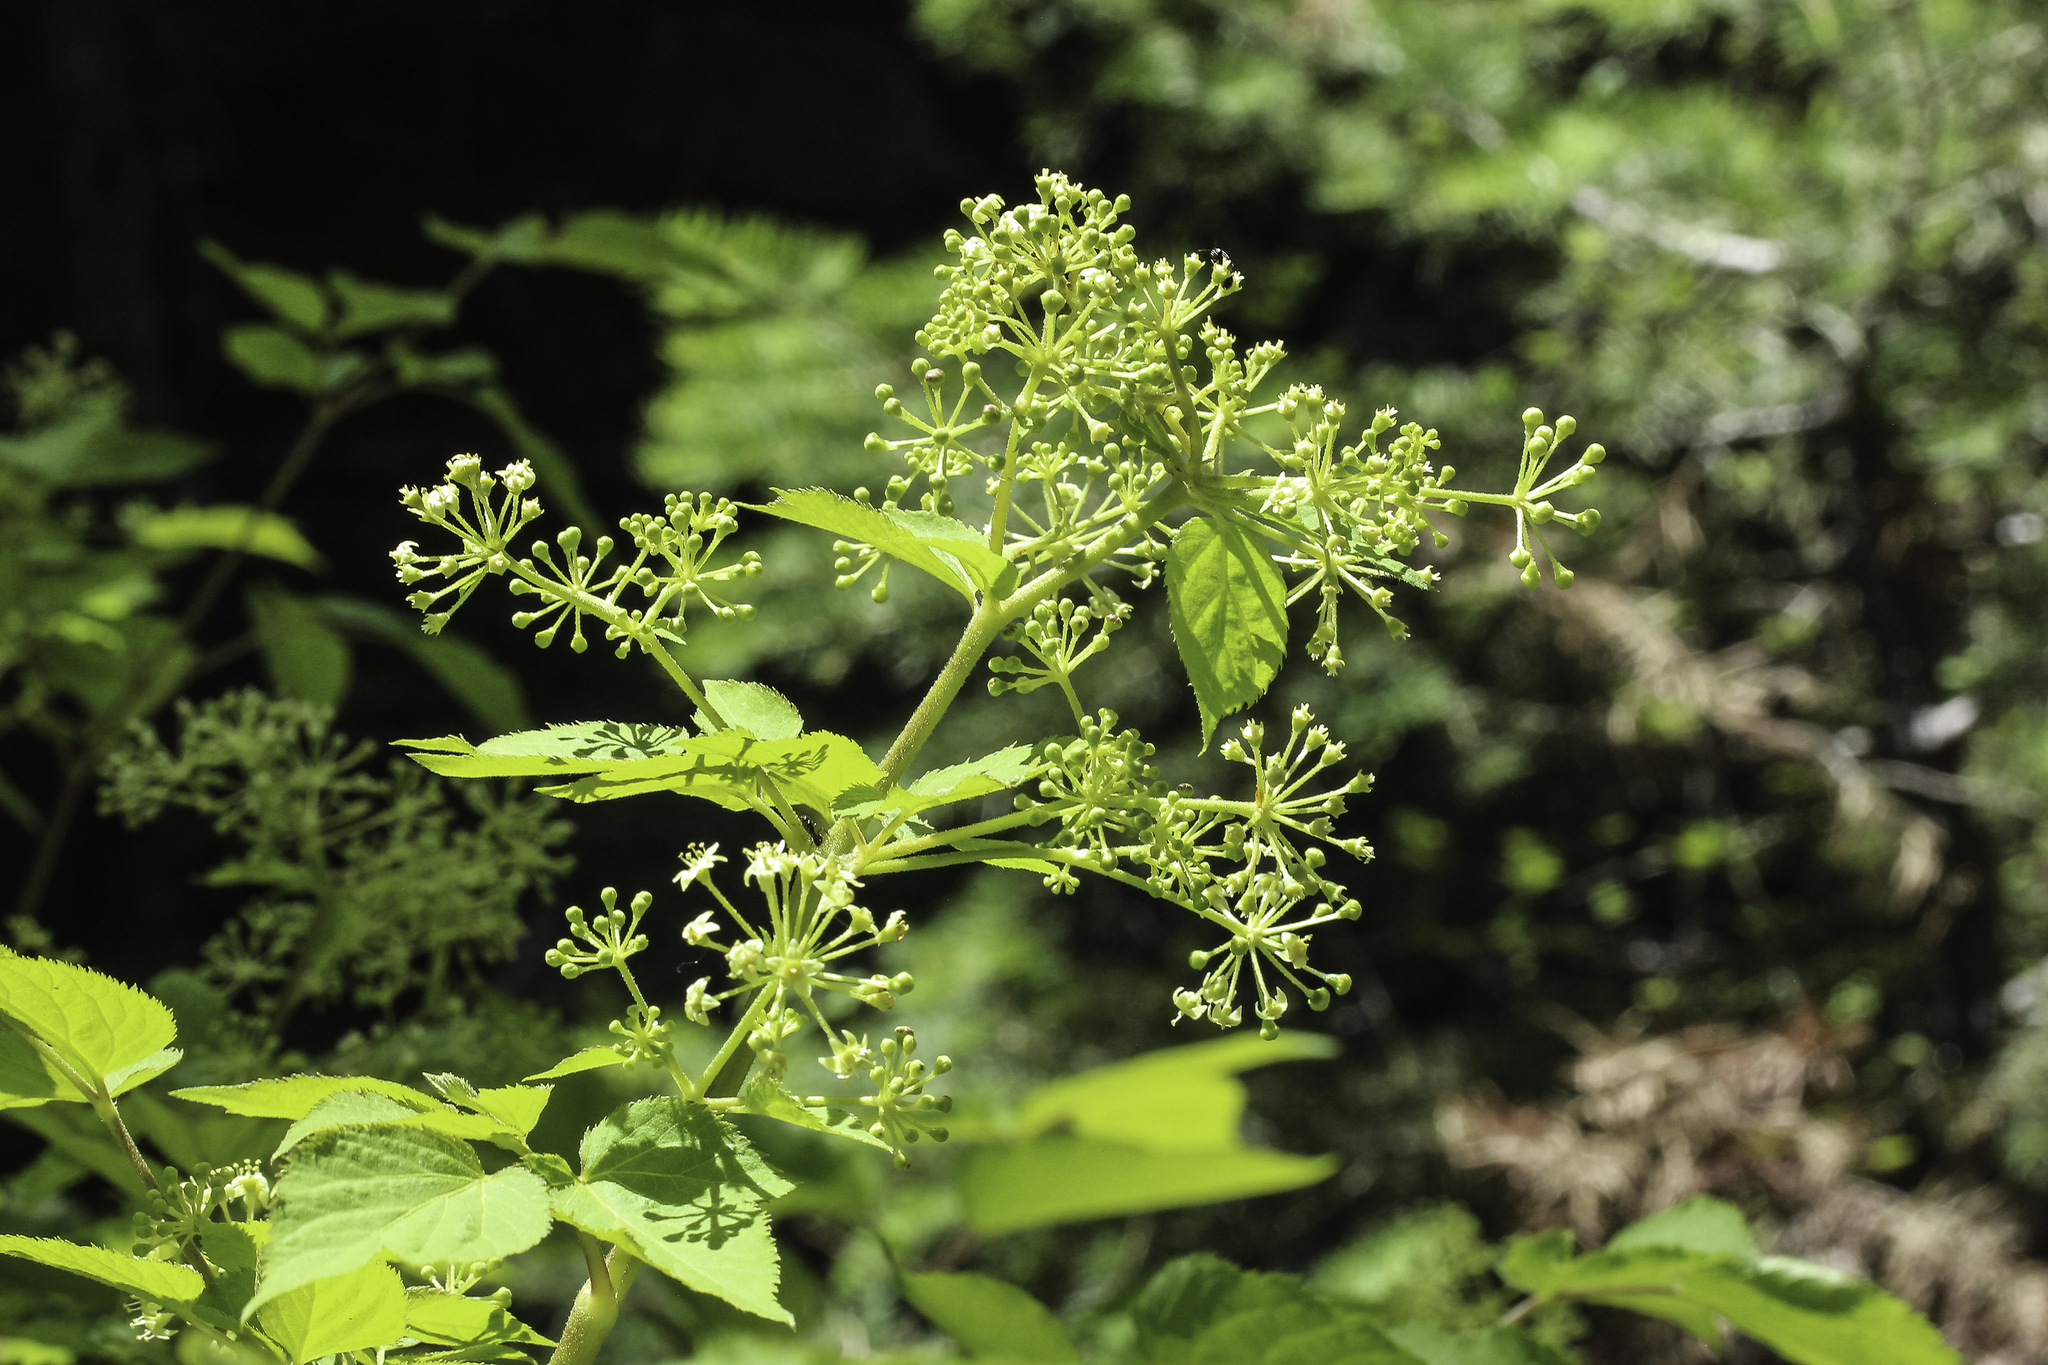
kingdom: Plantae
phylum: Tracheophyta
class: Magnoliopsida
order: Apiales
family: Araliaceae
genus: Aralia
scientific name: Aralia bicrenata
